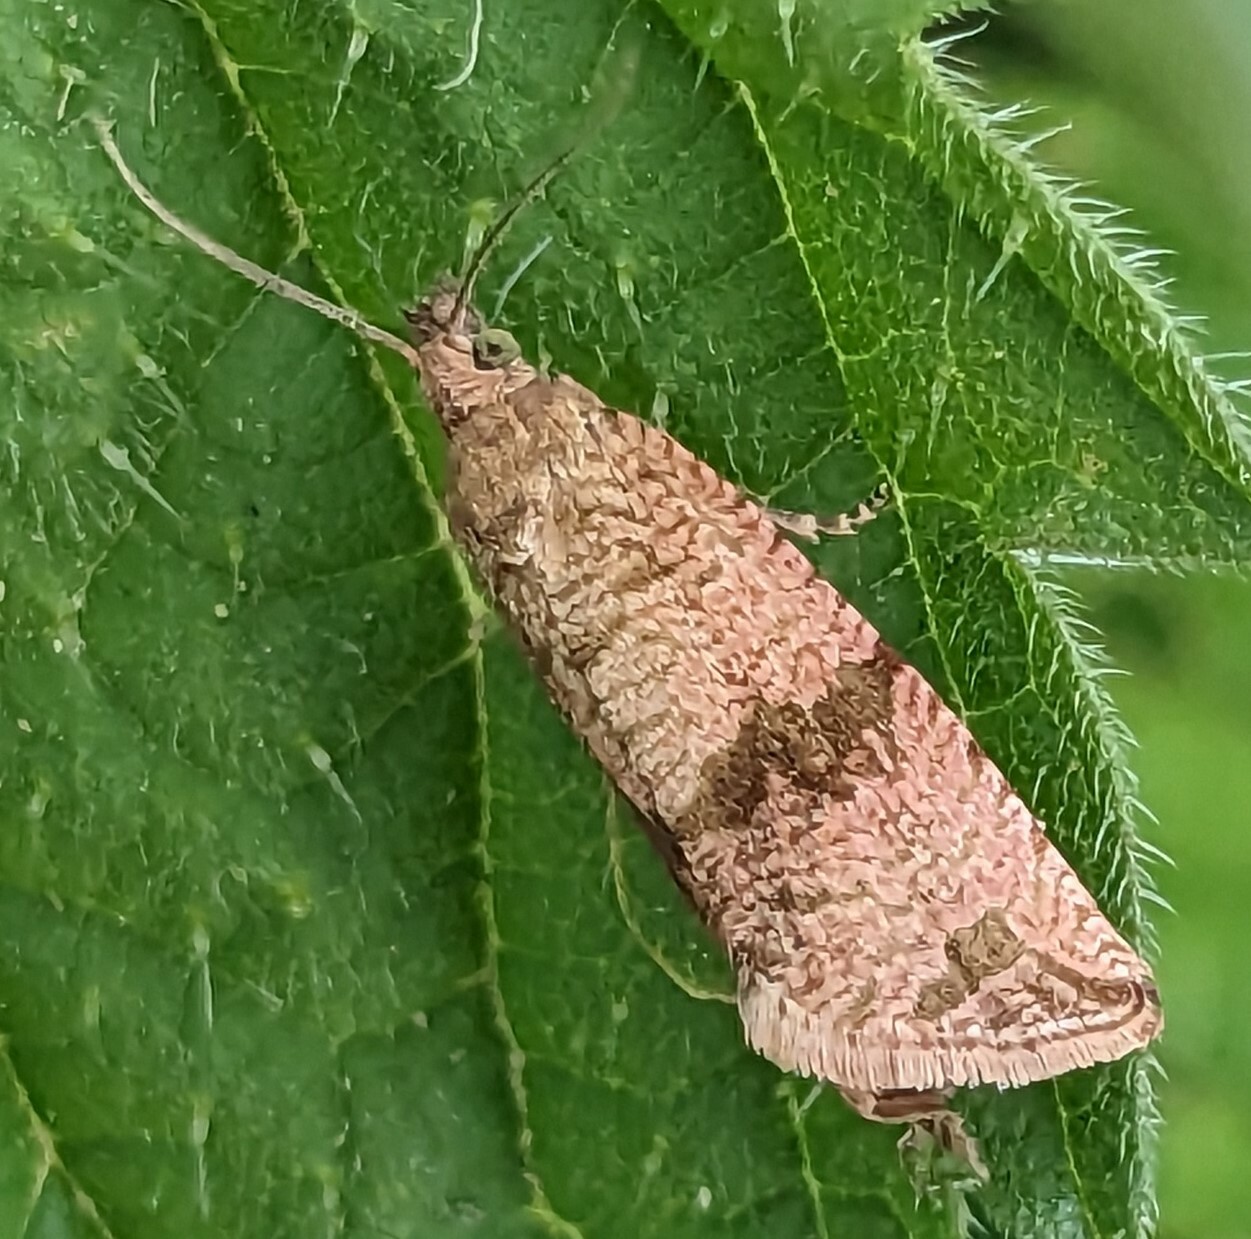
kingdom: Animalia
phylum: Arthropoda
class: Insecta
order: Lepidoptera
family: Tortricidae
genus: Celypha
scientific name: Celypha striana
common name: Barred marble
